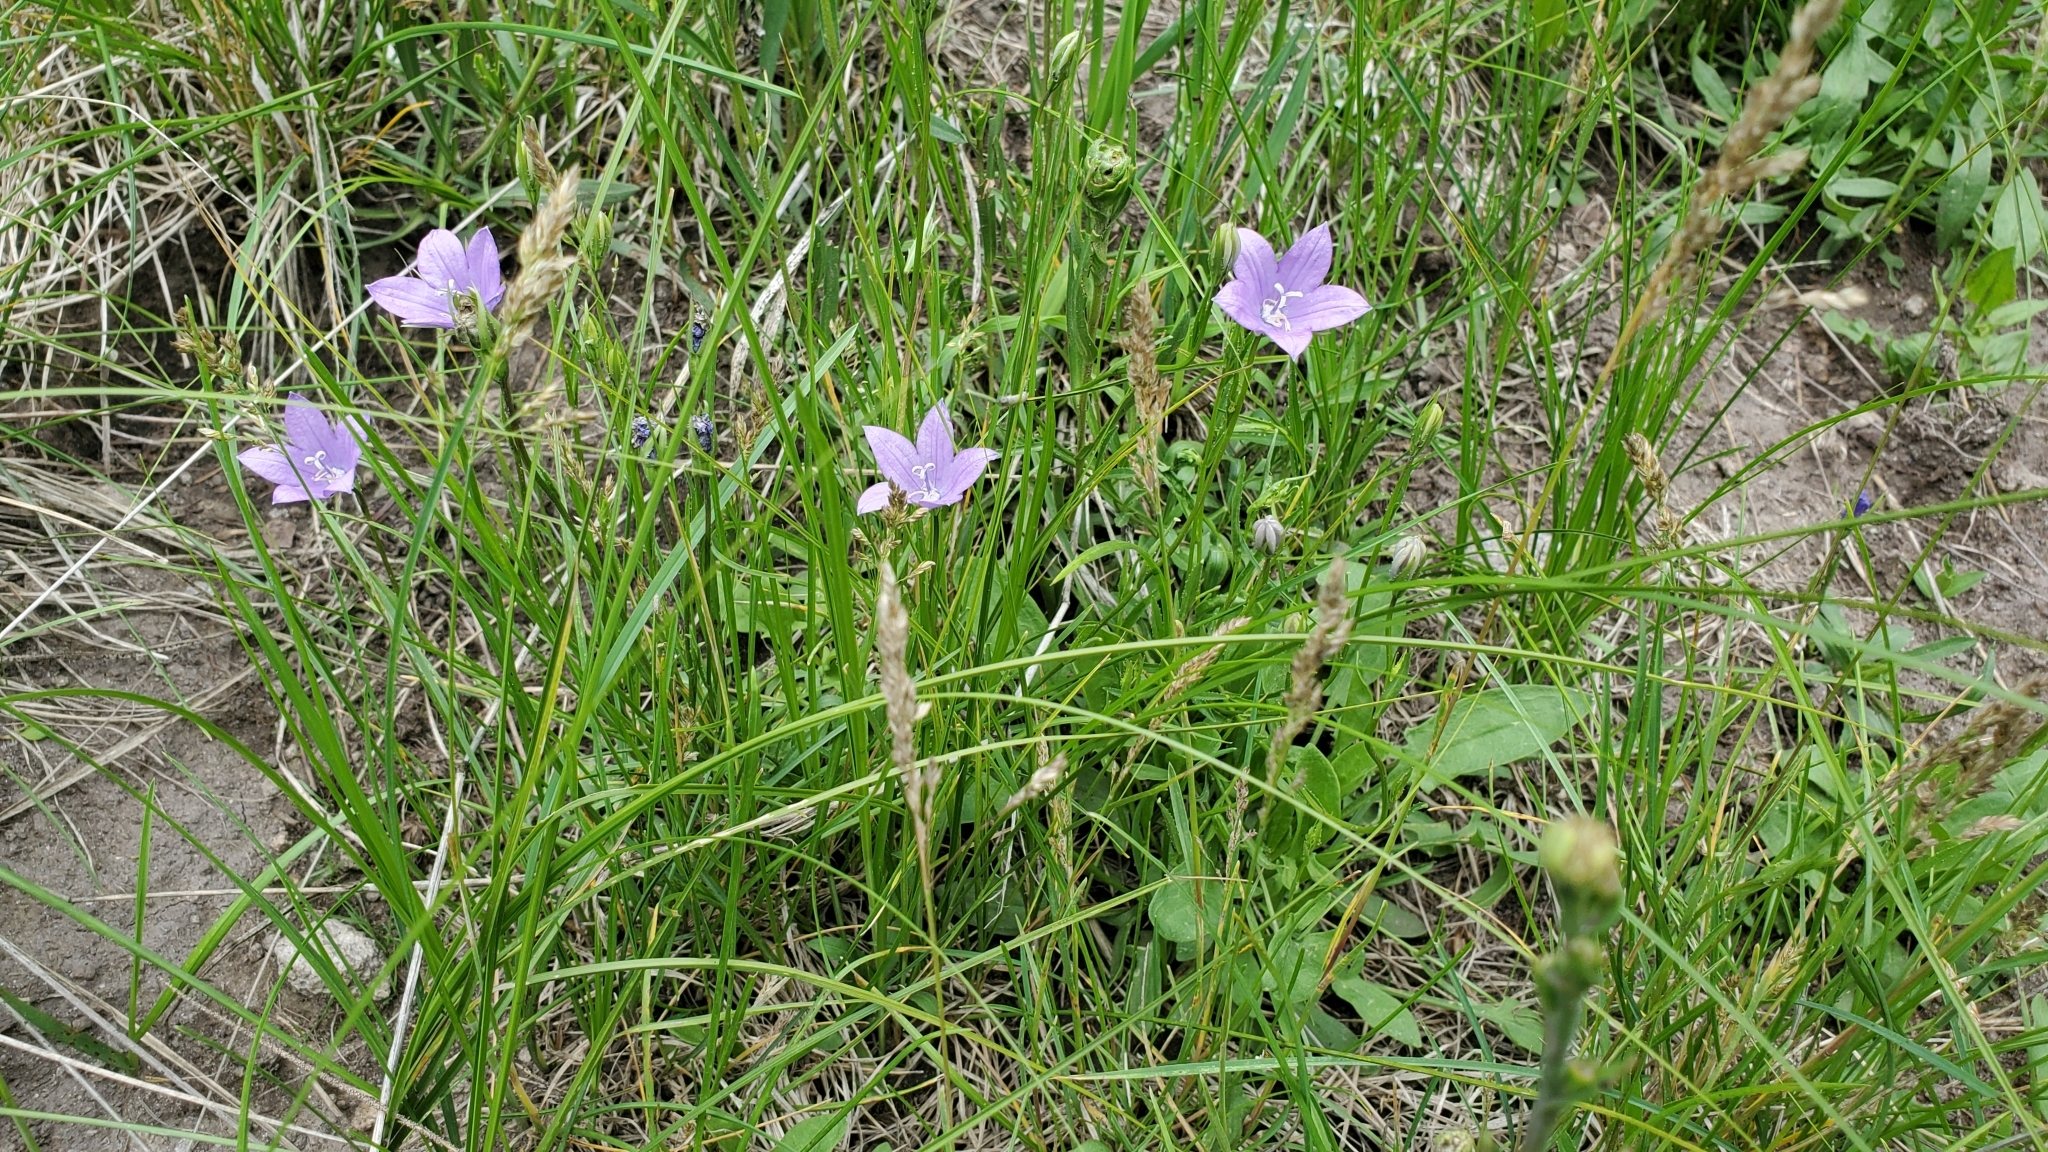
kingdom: Plantae
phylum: Tracheophyta
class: Magnoliopsida
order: Asterales
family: Campanulaceae
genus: Campanula
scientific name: Campanula parryi
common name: Rocky mountain bellflower
